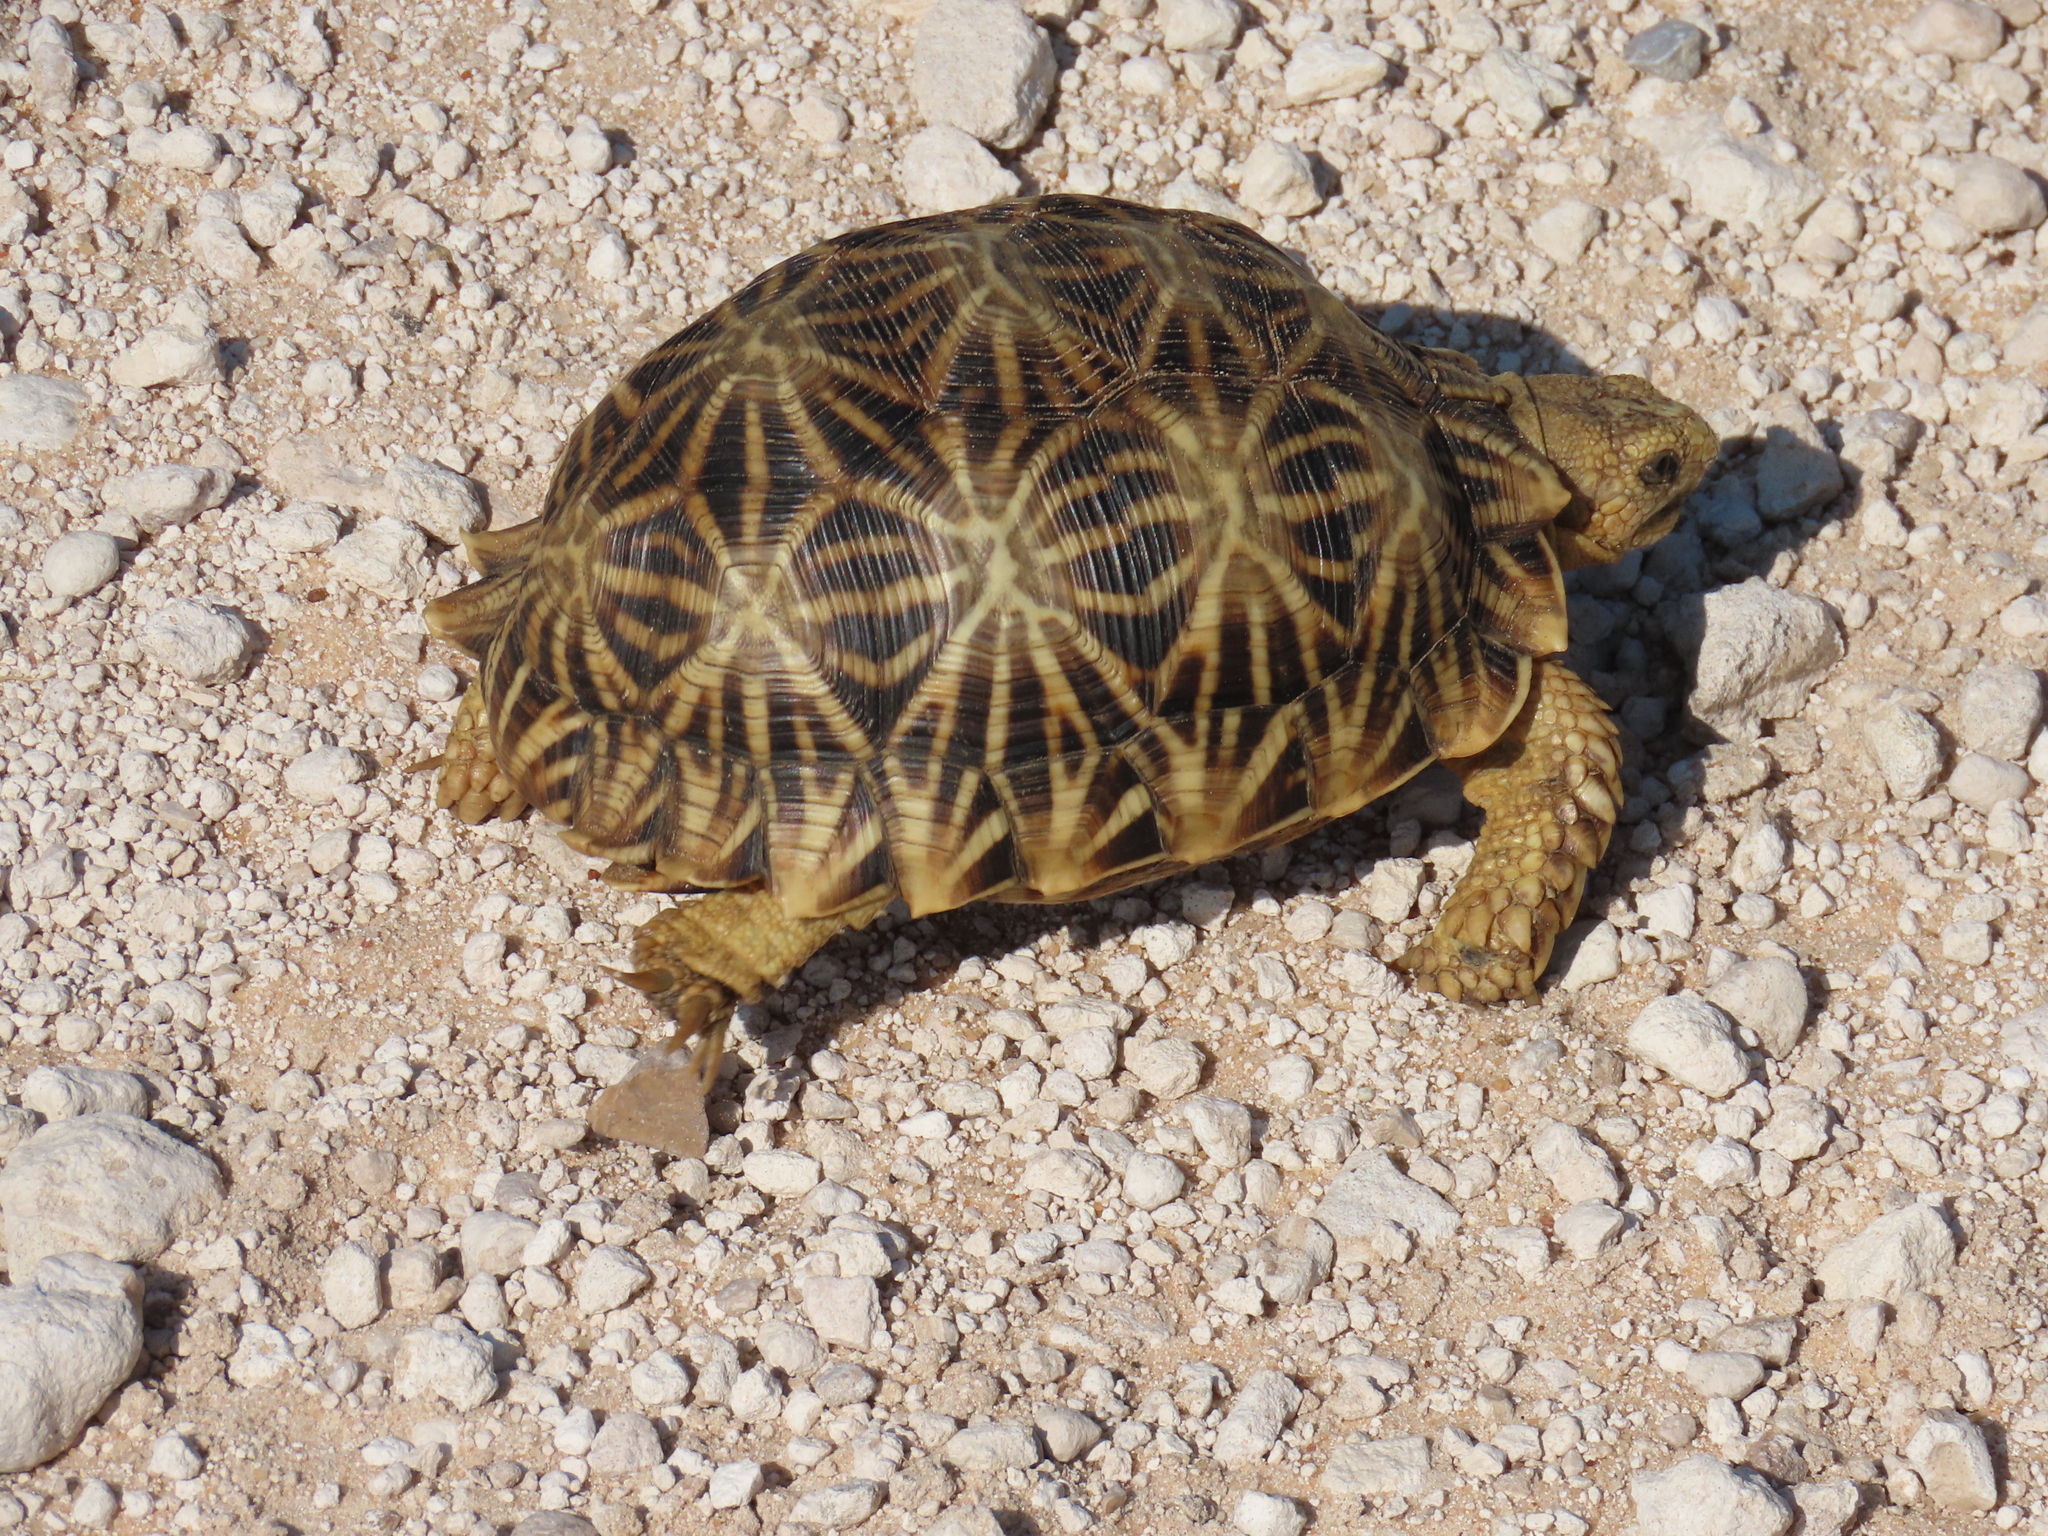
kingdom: Animalia
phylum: Chordata
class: Testudines
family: Testudinidae
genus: Psammobates
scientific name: Psammobates oculifer
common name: Serrated tortoise
